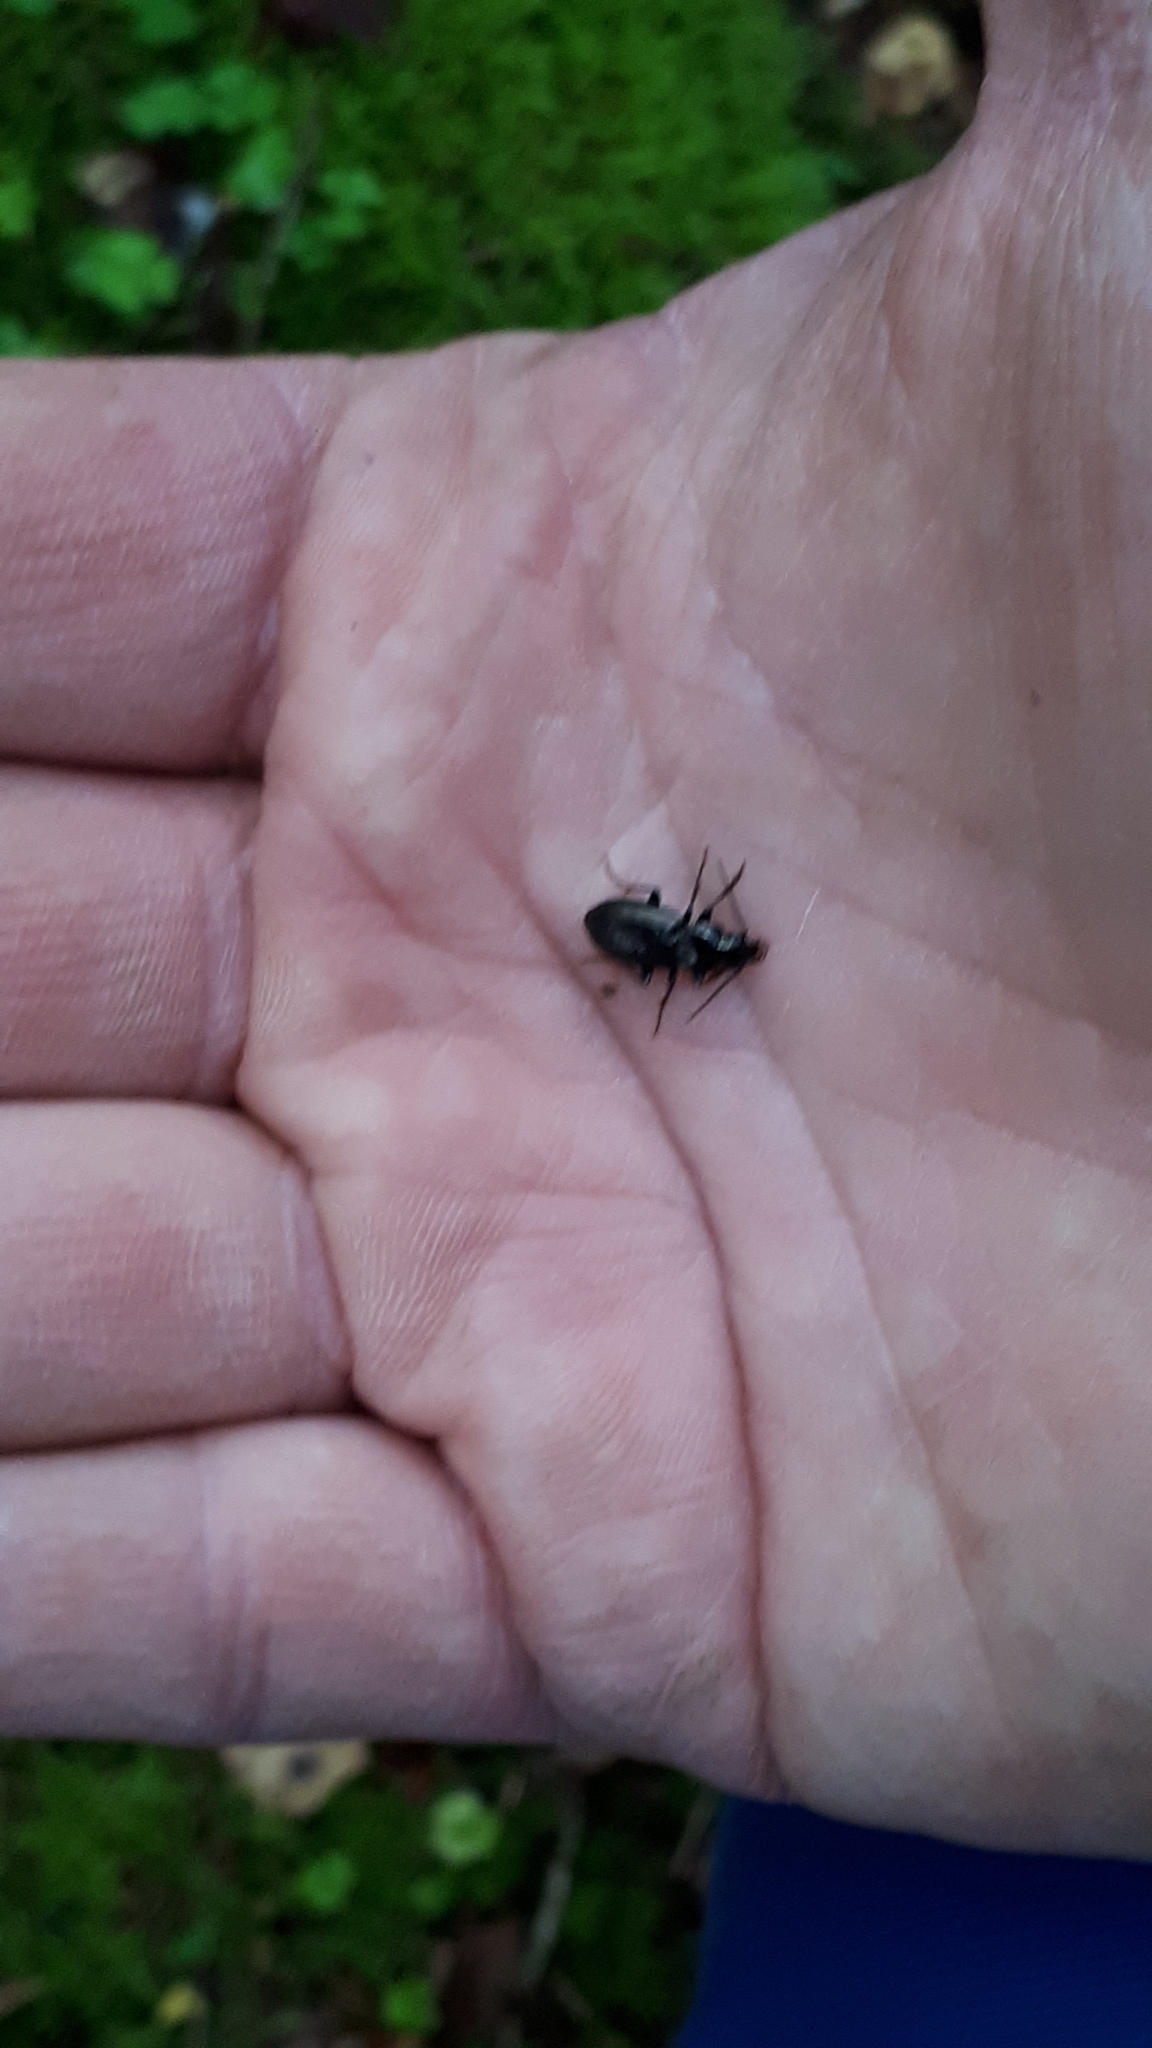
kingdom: Animalia
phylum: Arthropoda
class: Insecta
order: Coleoptera
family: Carabidae
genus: Pterostichus
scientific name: Pterostichus oblongopunctatus
